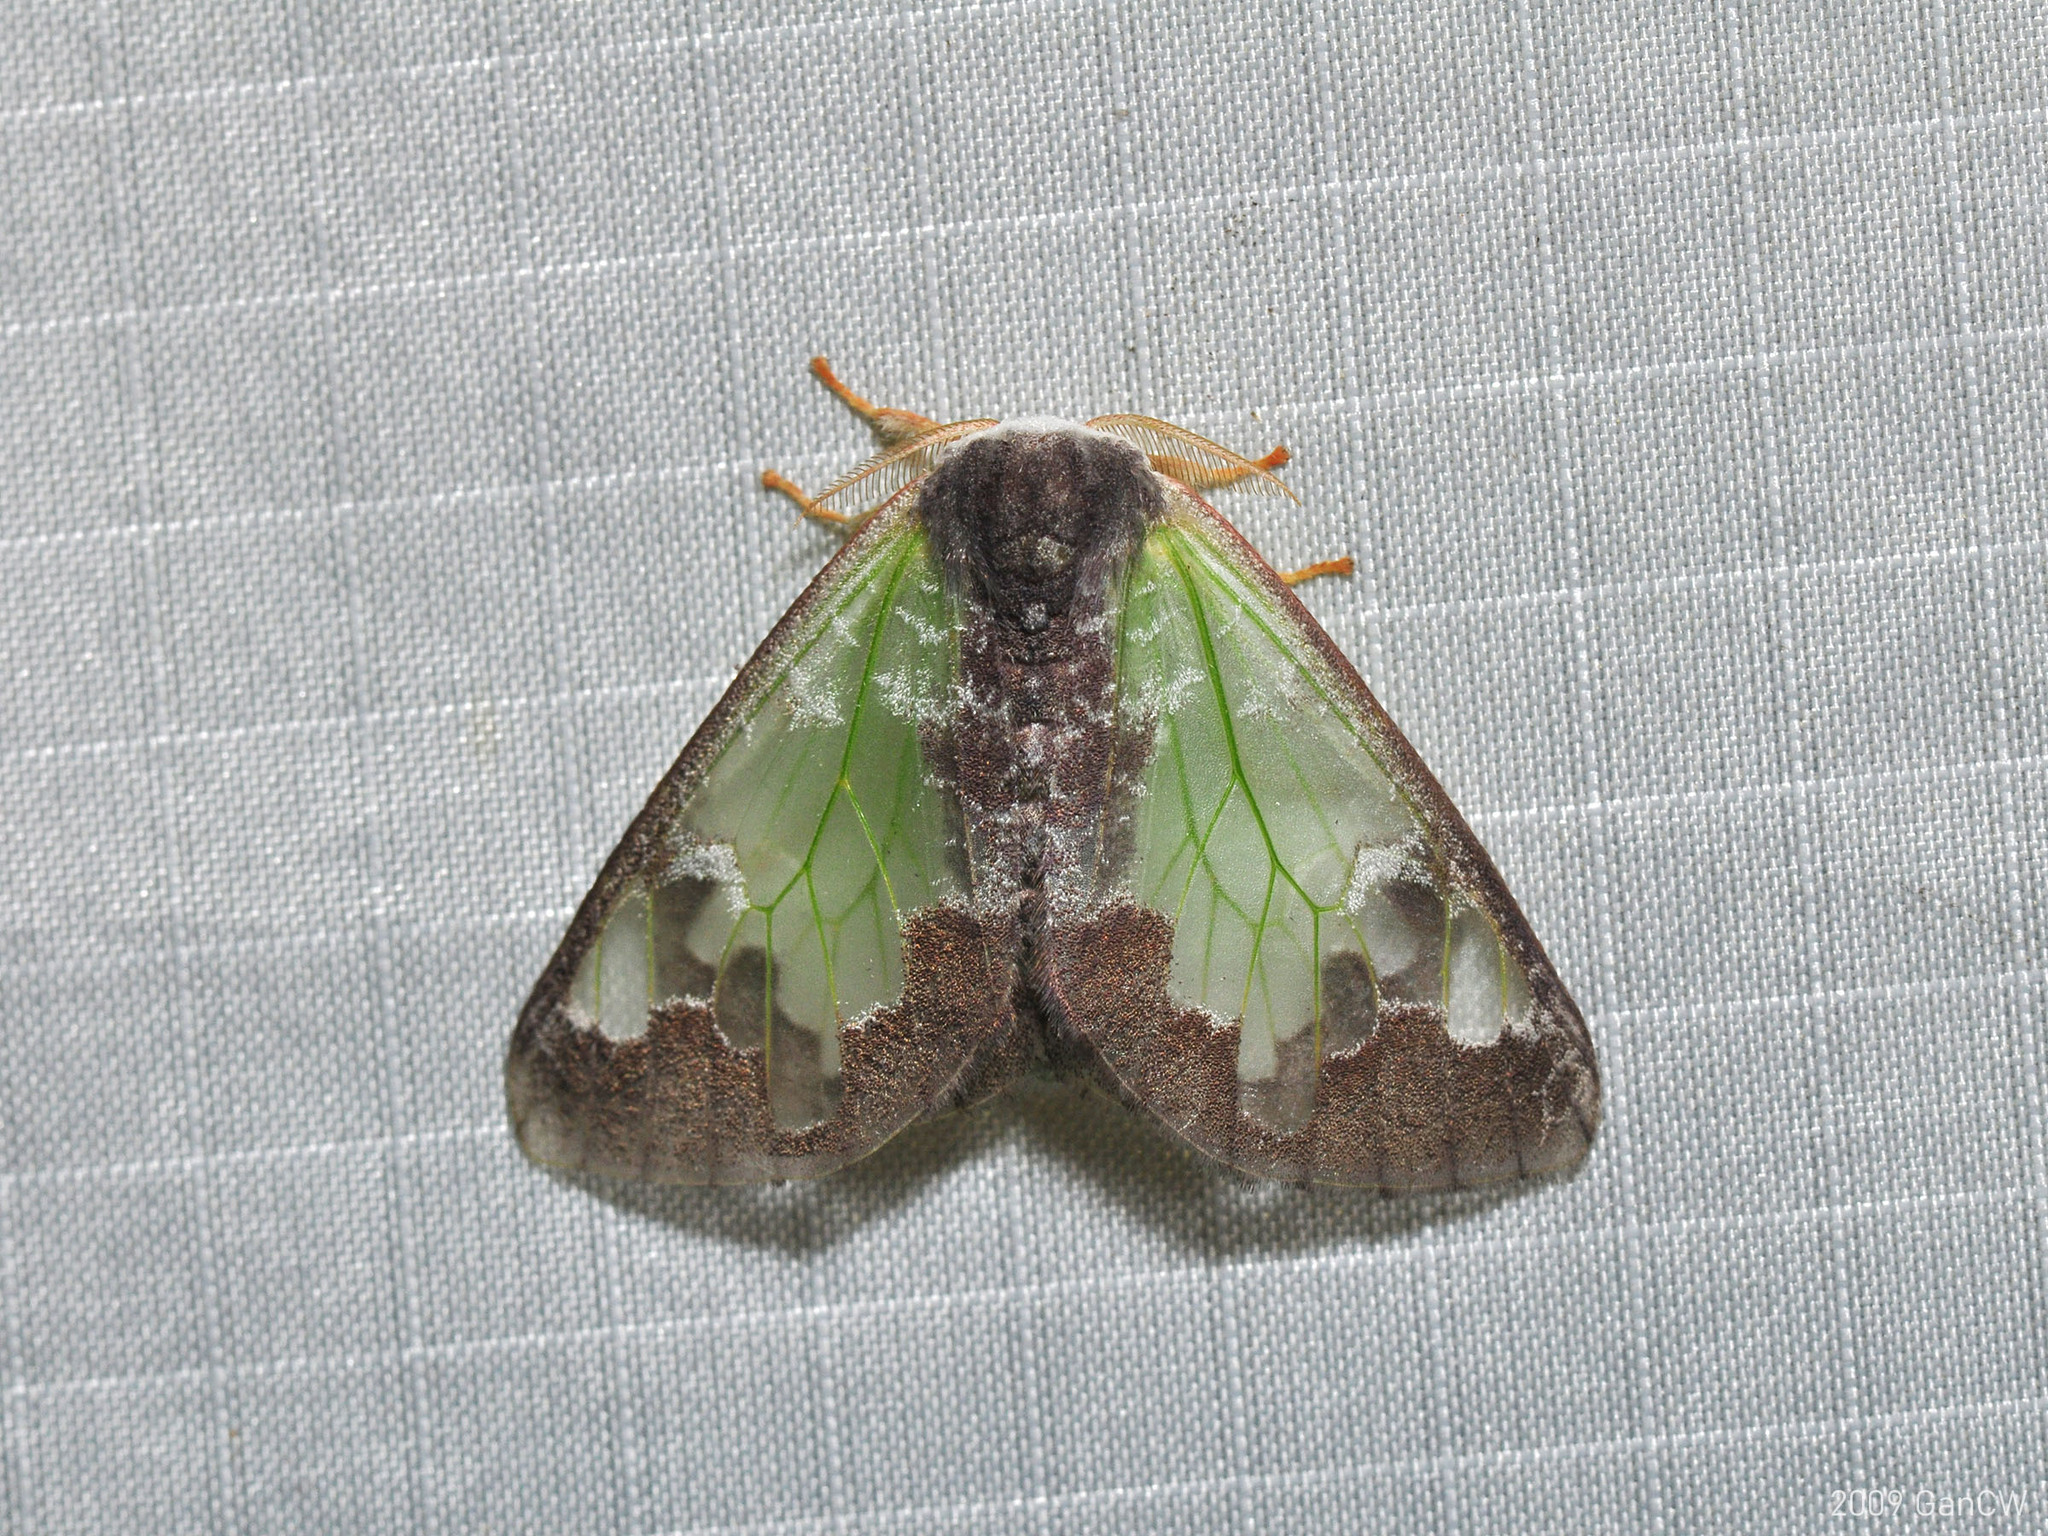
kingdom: Animalia
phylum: Arthropoda
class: Insecta
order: Lepidoptera
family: Erebidae
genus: Carriola
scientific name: Carriola thyridophora
